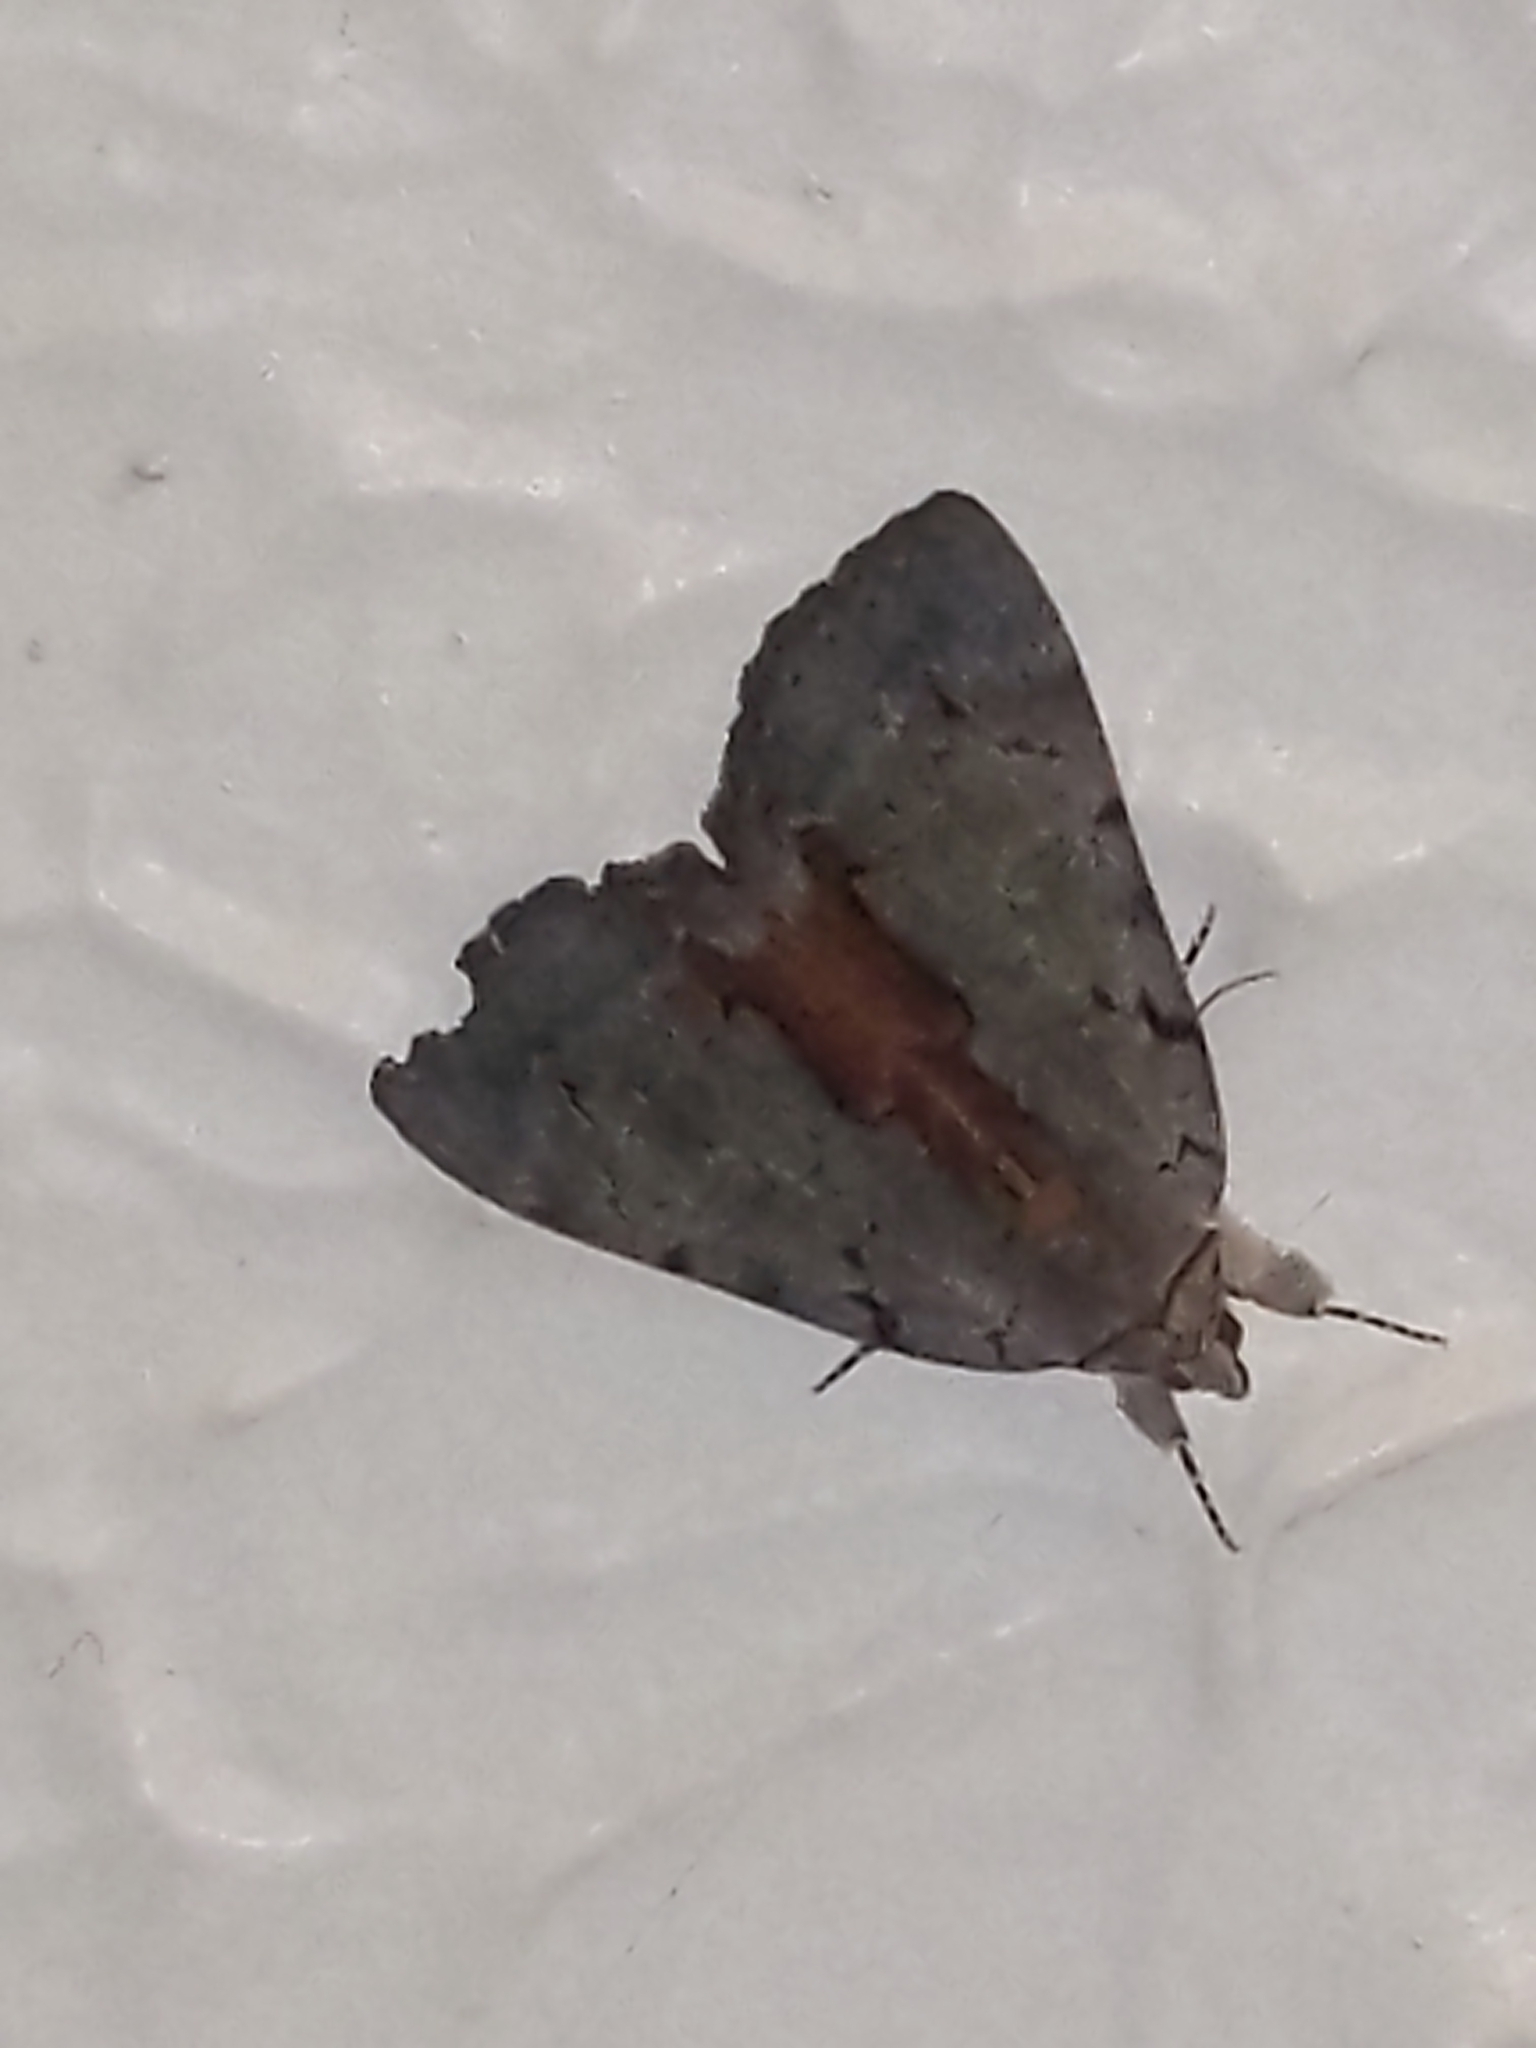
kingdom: Animalia
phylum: Arthropoda
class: Insecta
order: Lepidoptera
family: Erebidae
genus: Catocala
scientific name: Catocala grynea
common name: Woody underwing
